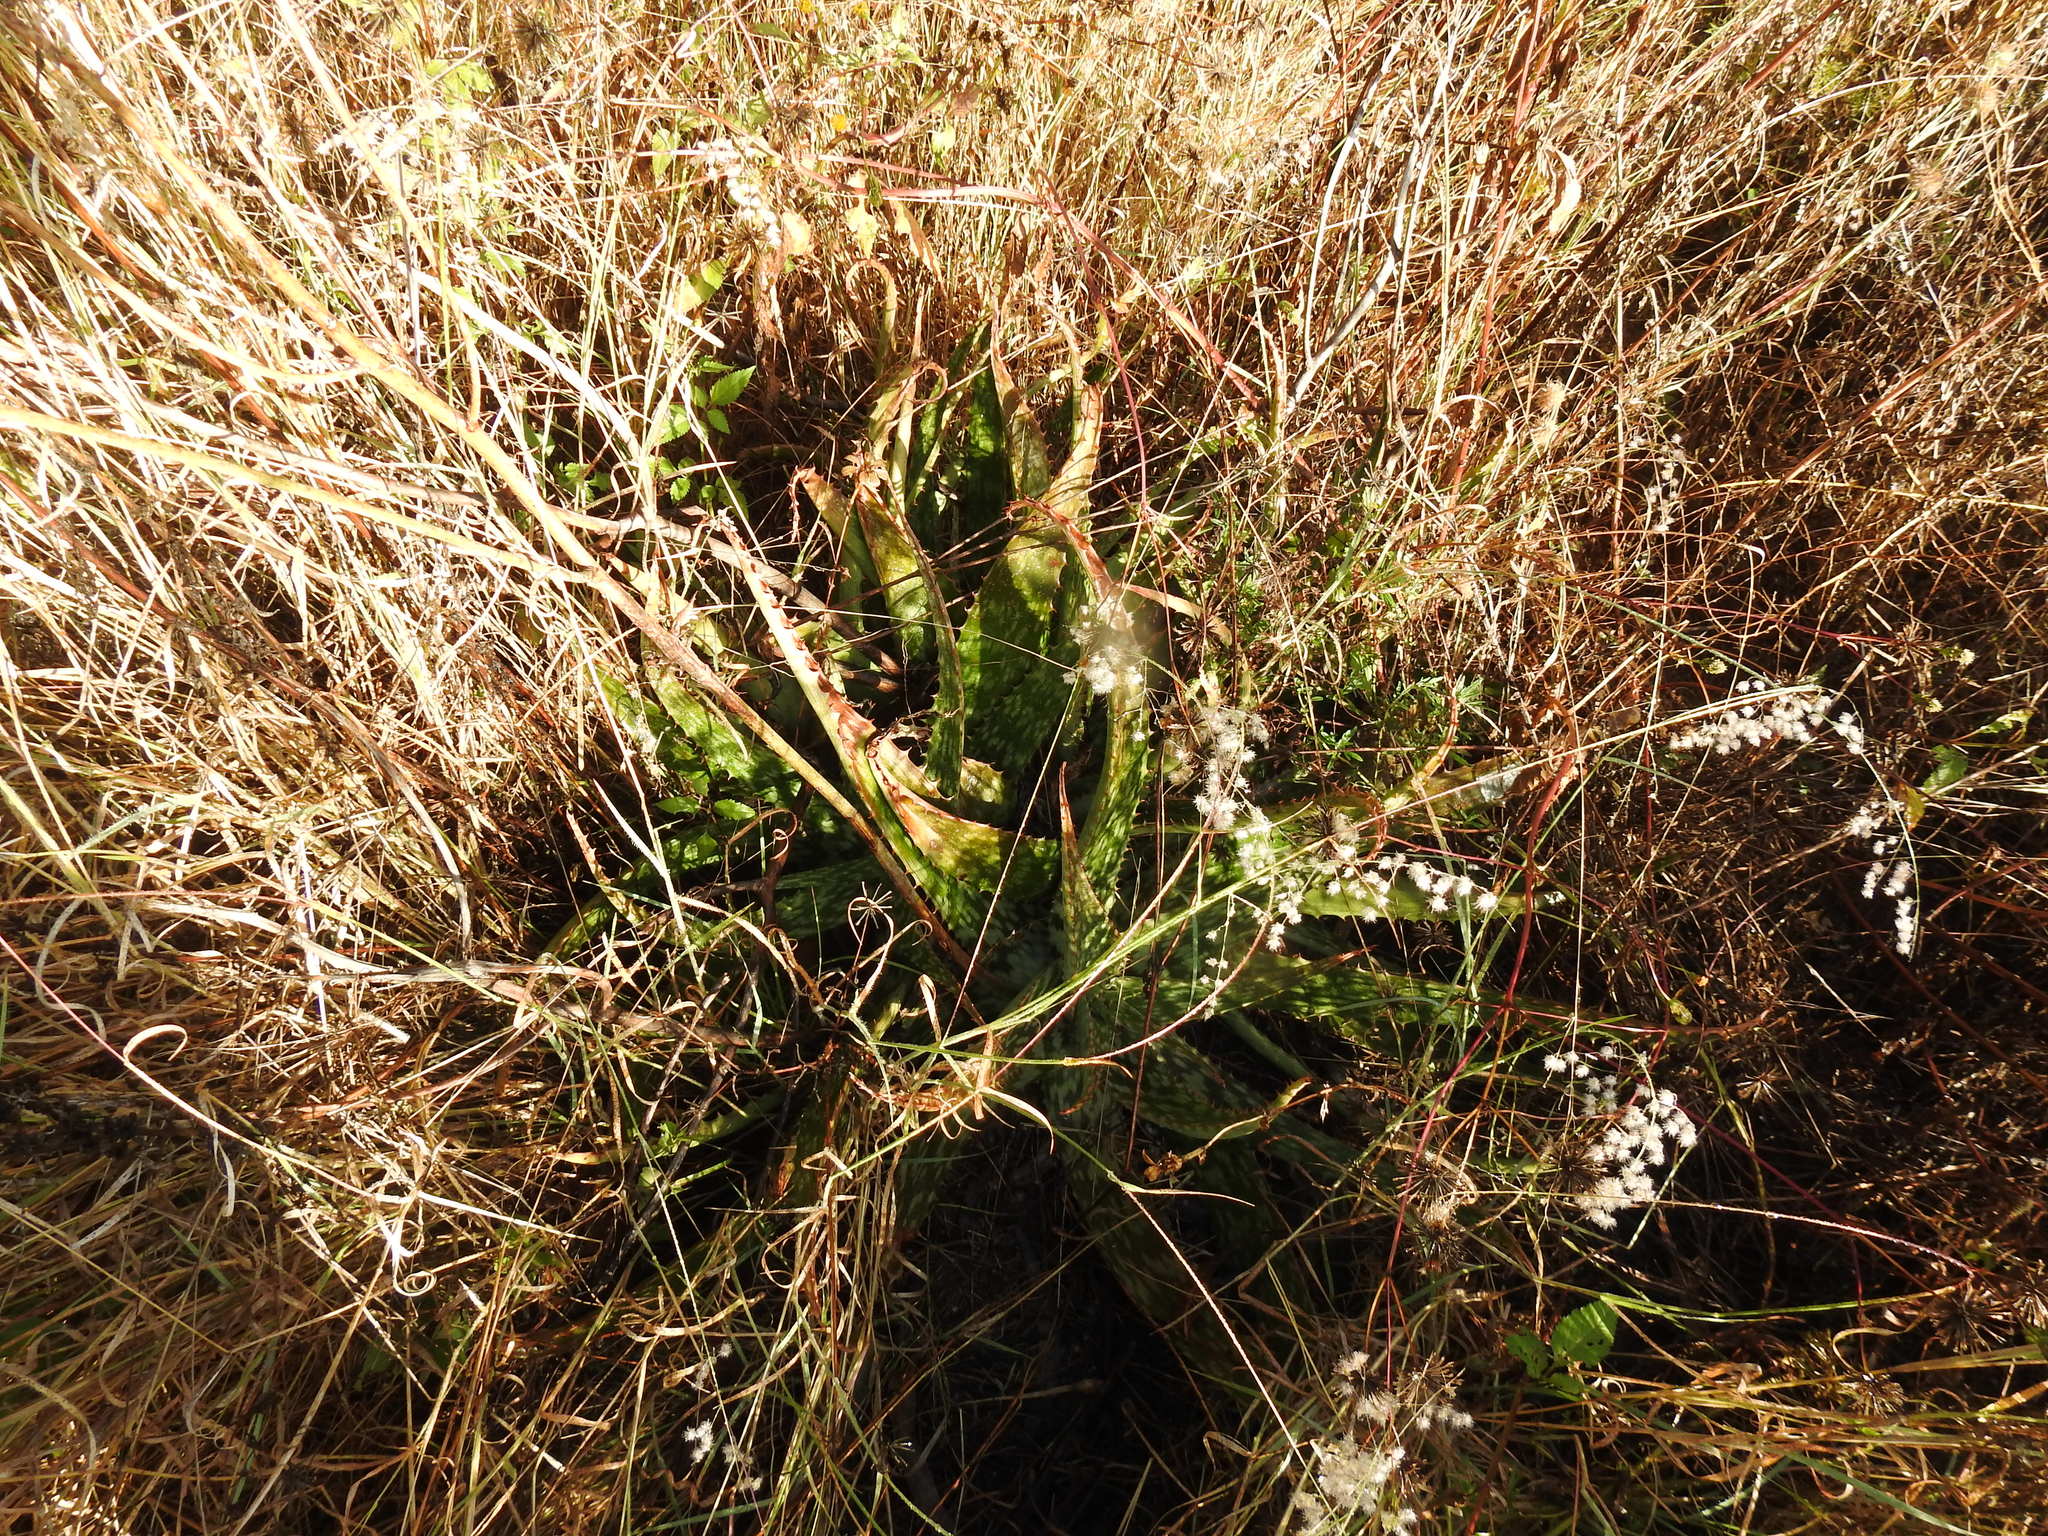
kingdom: Plantae
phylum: Tracheophyta
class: Liliopsida
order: Asparagales
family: Asphodelaceae
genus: Aloe
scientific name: Aloe davyana
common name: Spotted aloe
